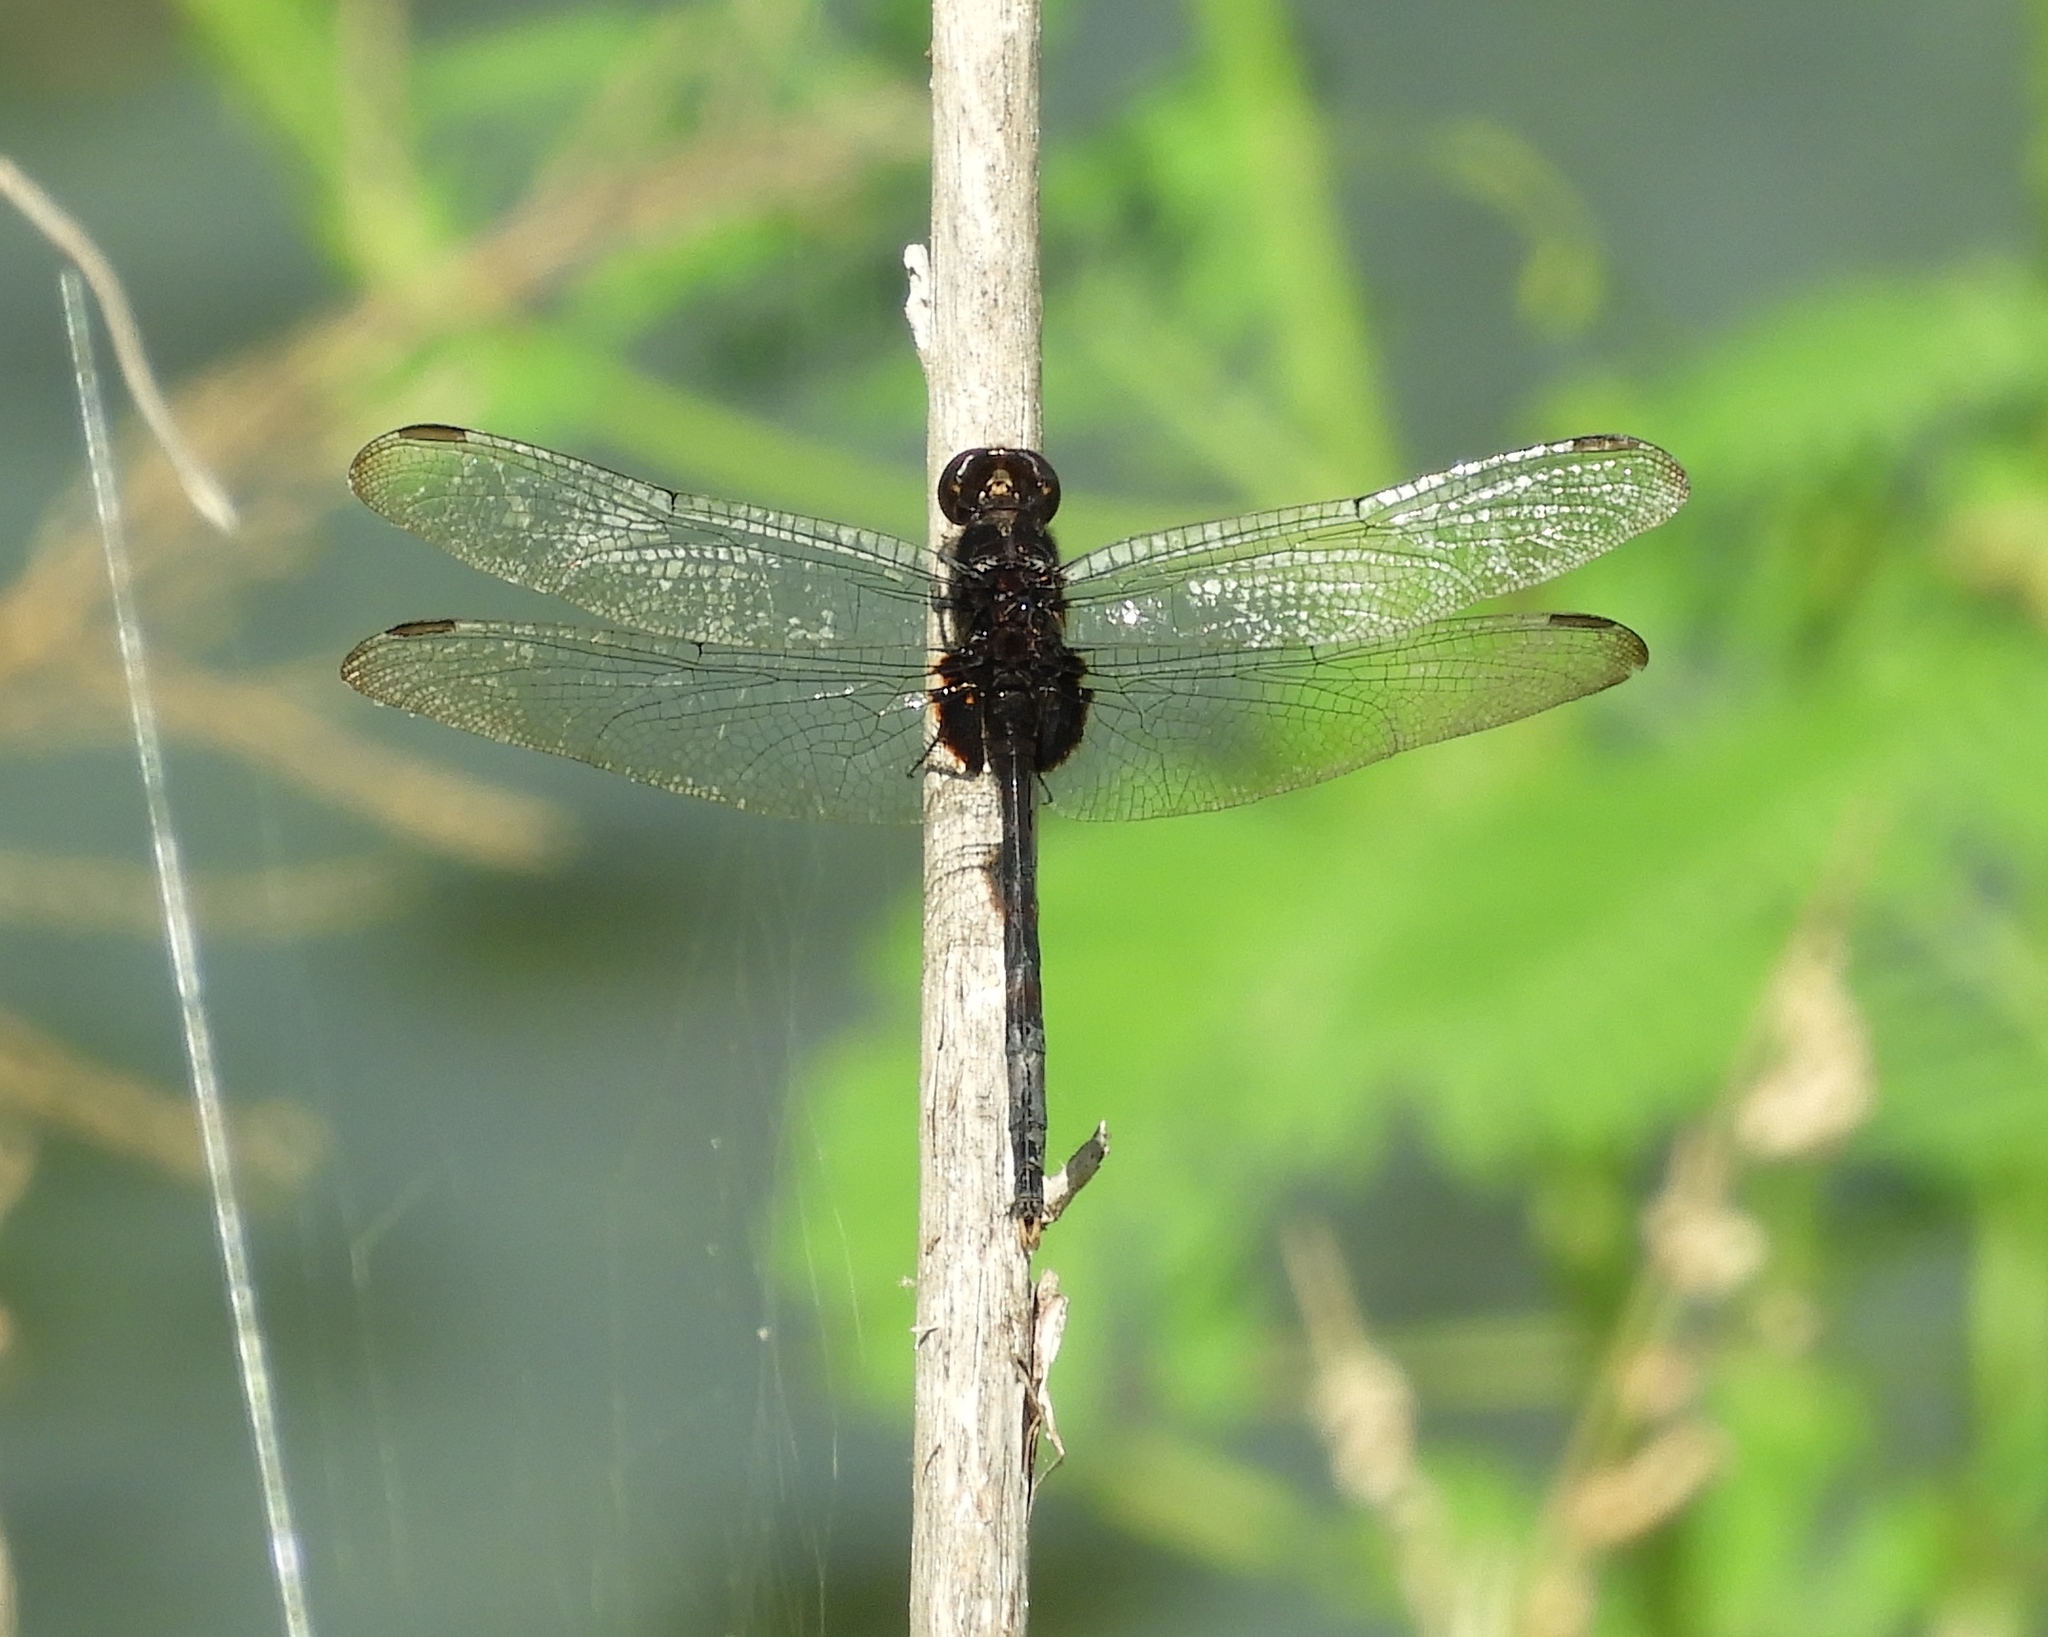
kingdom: Animalia
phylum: Arthropoda
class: Insecta
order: Odonata
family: Libellulidae
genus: Erythemis
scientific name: Erythemis plebeja
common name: Pin-tailed pondhawk
